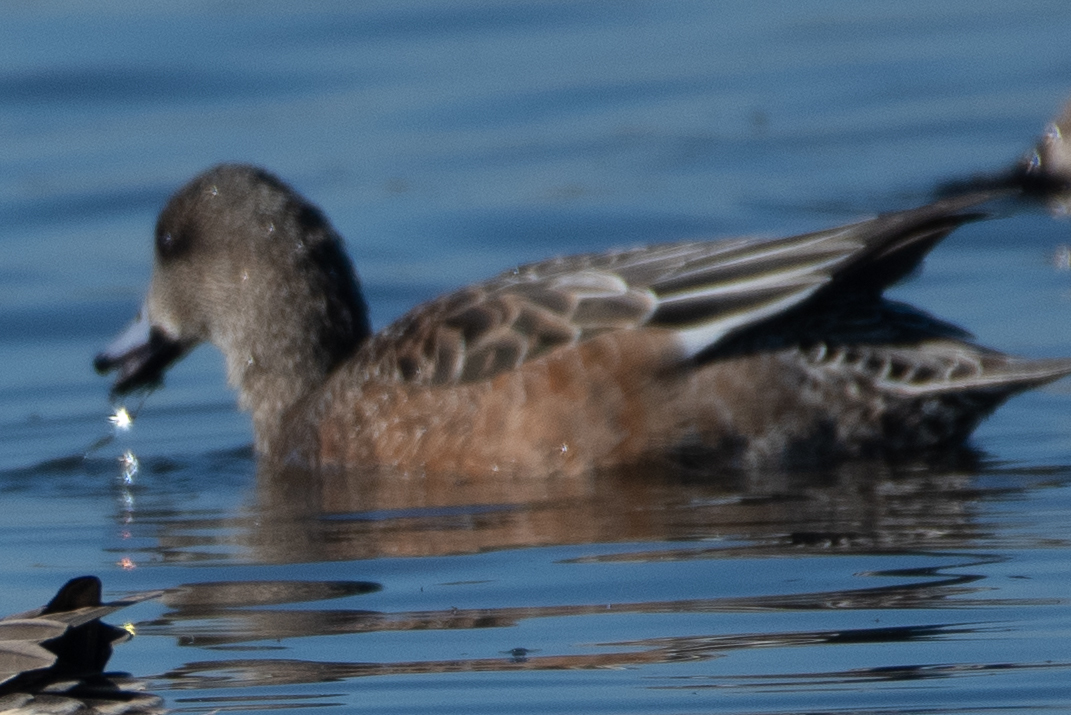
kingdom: Animalia
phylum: Chordata
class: Aves
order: Anseriformes
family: Anatidae
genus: Mareca
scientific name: Mareca americana
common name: American wigeon
